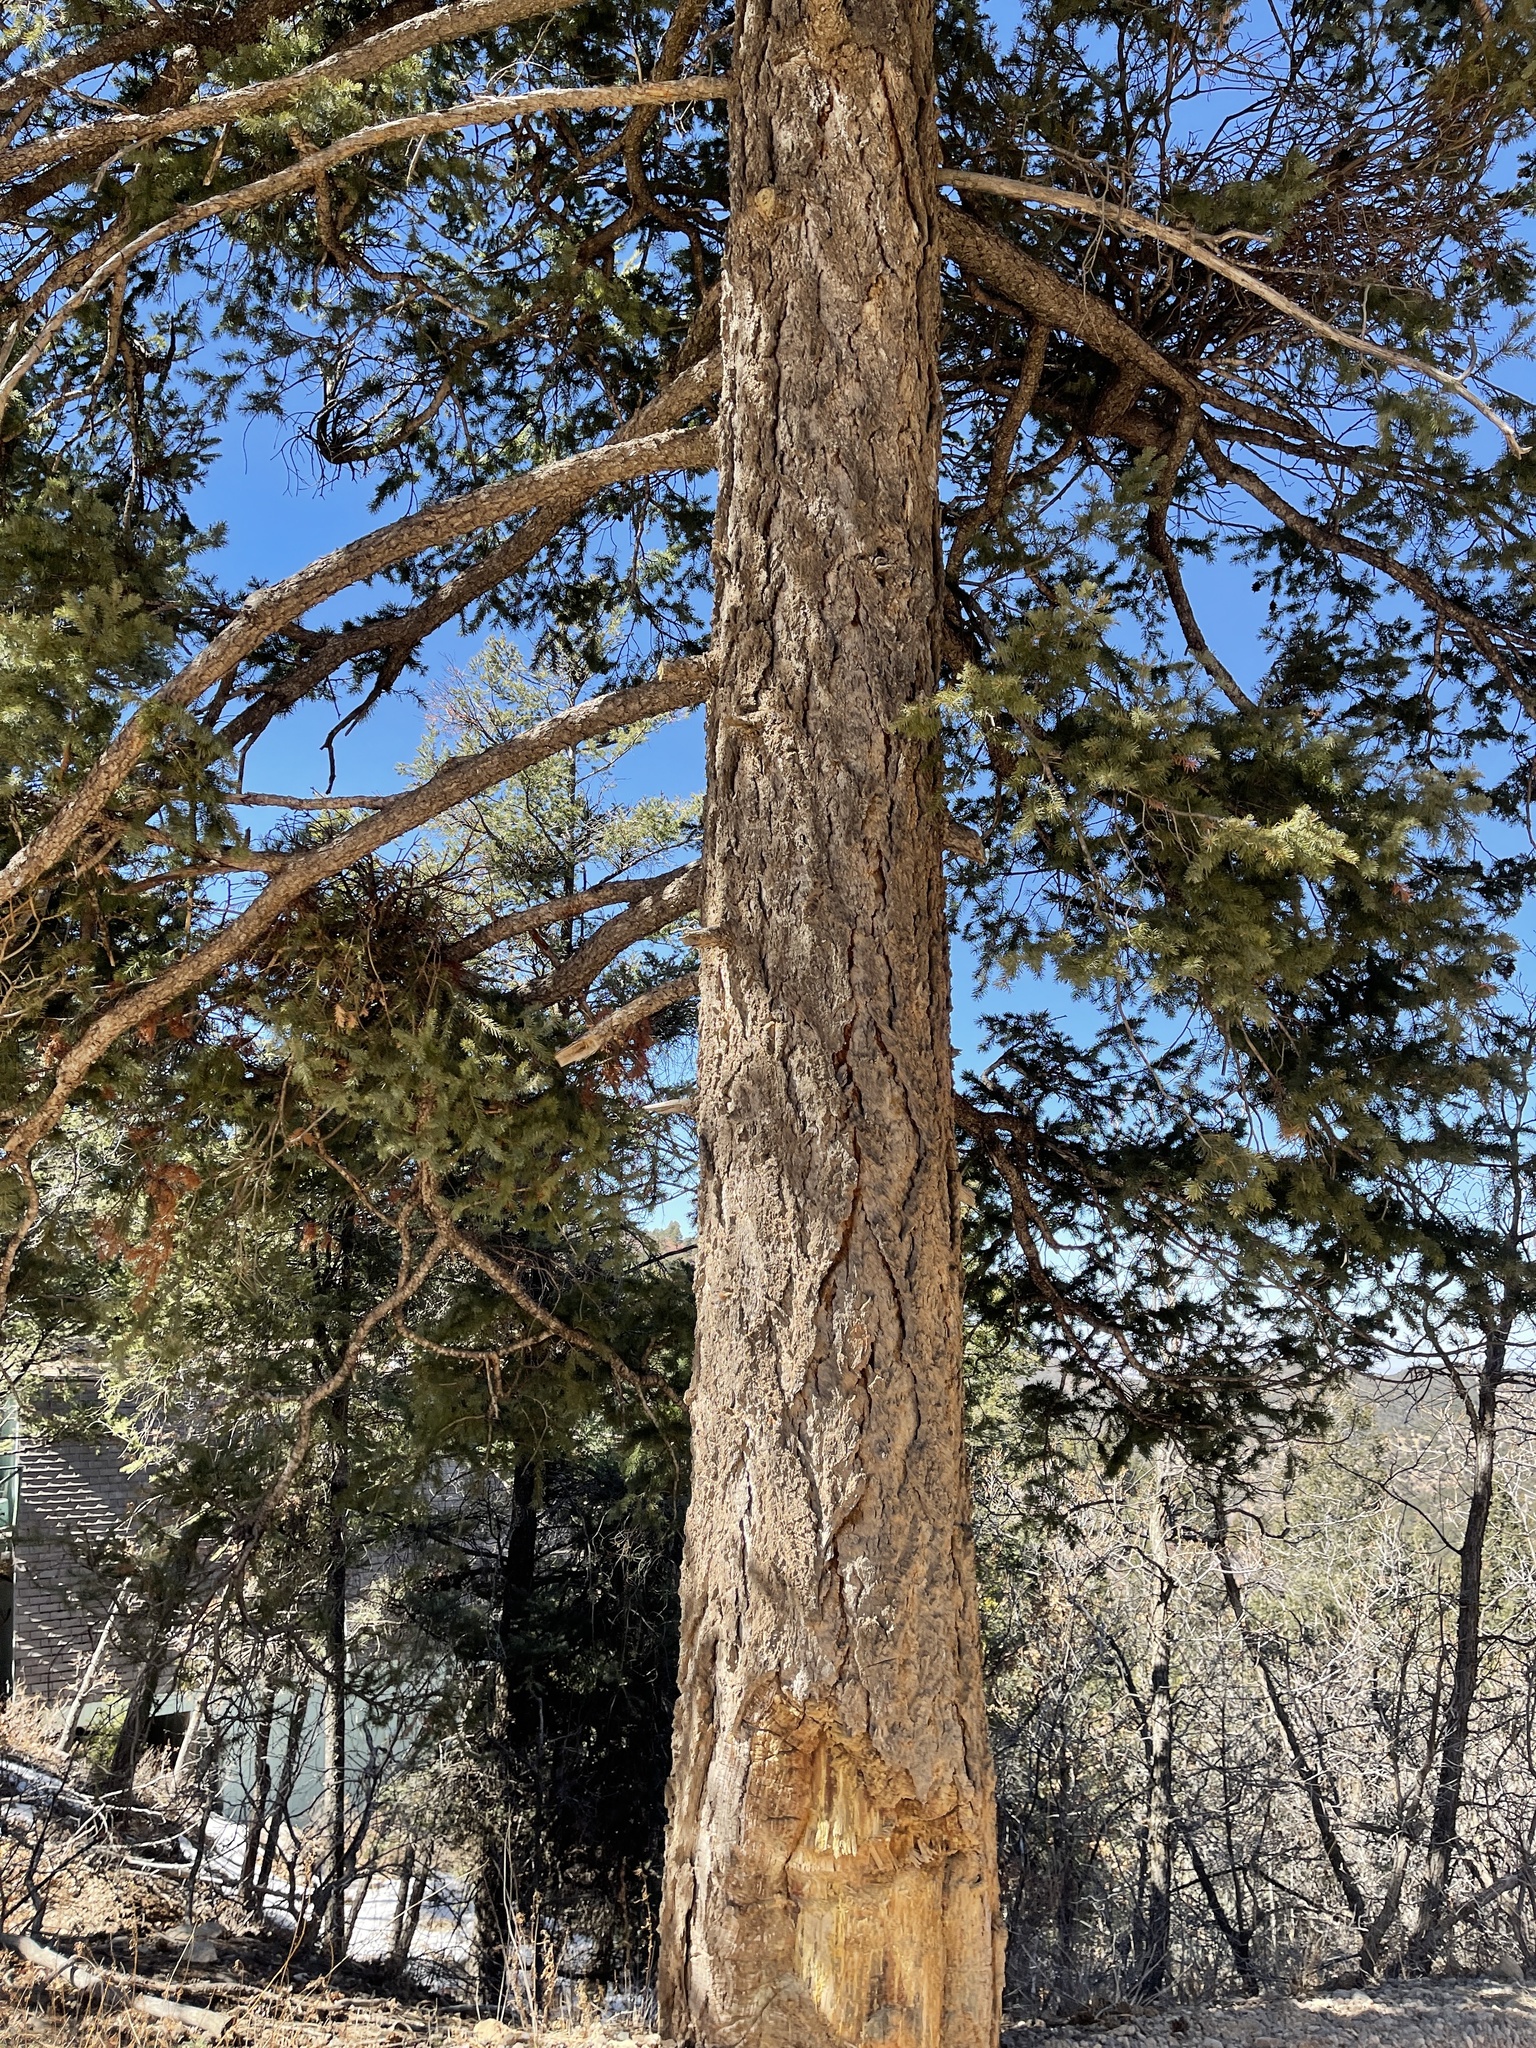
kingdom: Plantae
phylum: Tracheophyta
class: Pinopsida
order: Pinales
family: Pinaceae
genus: Pseudotsuga
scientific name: Pseudotsuga menziesii
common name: Douglas fir
